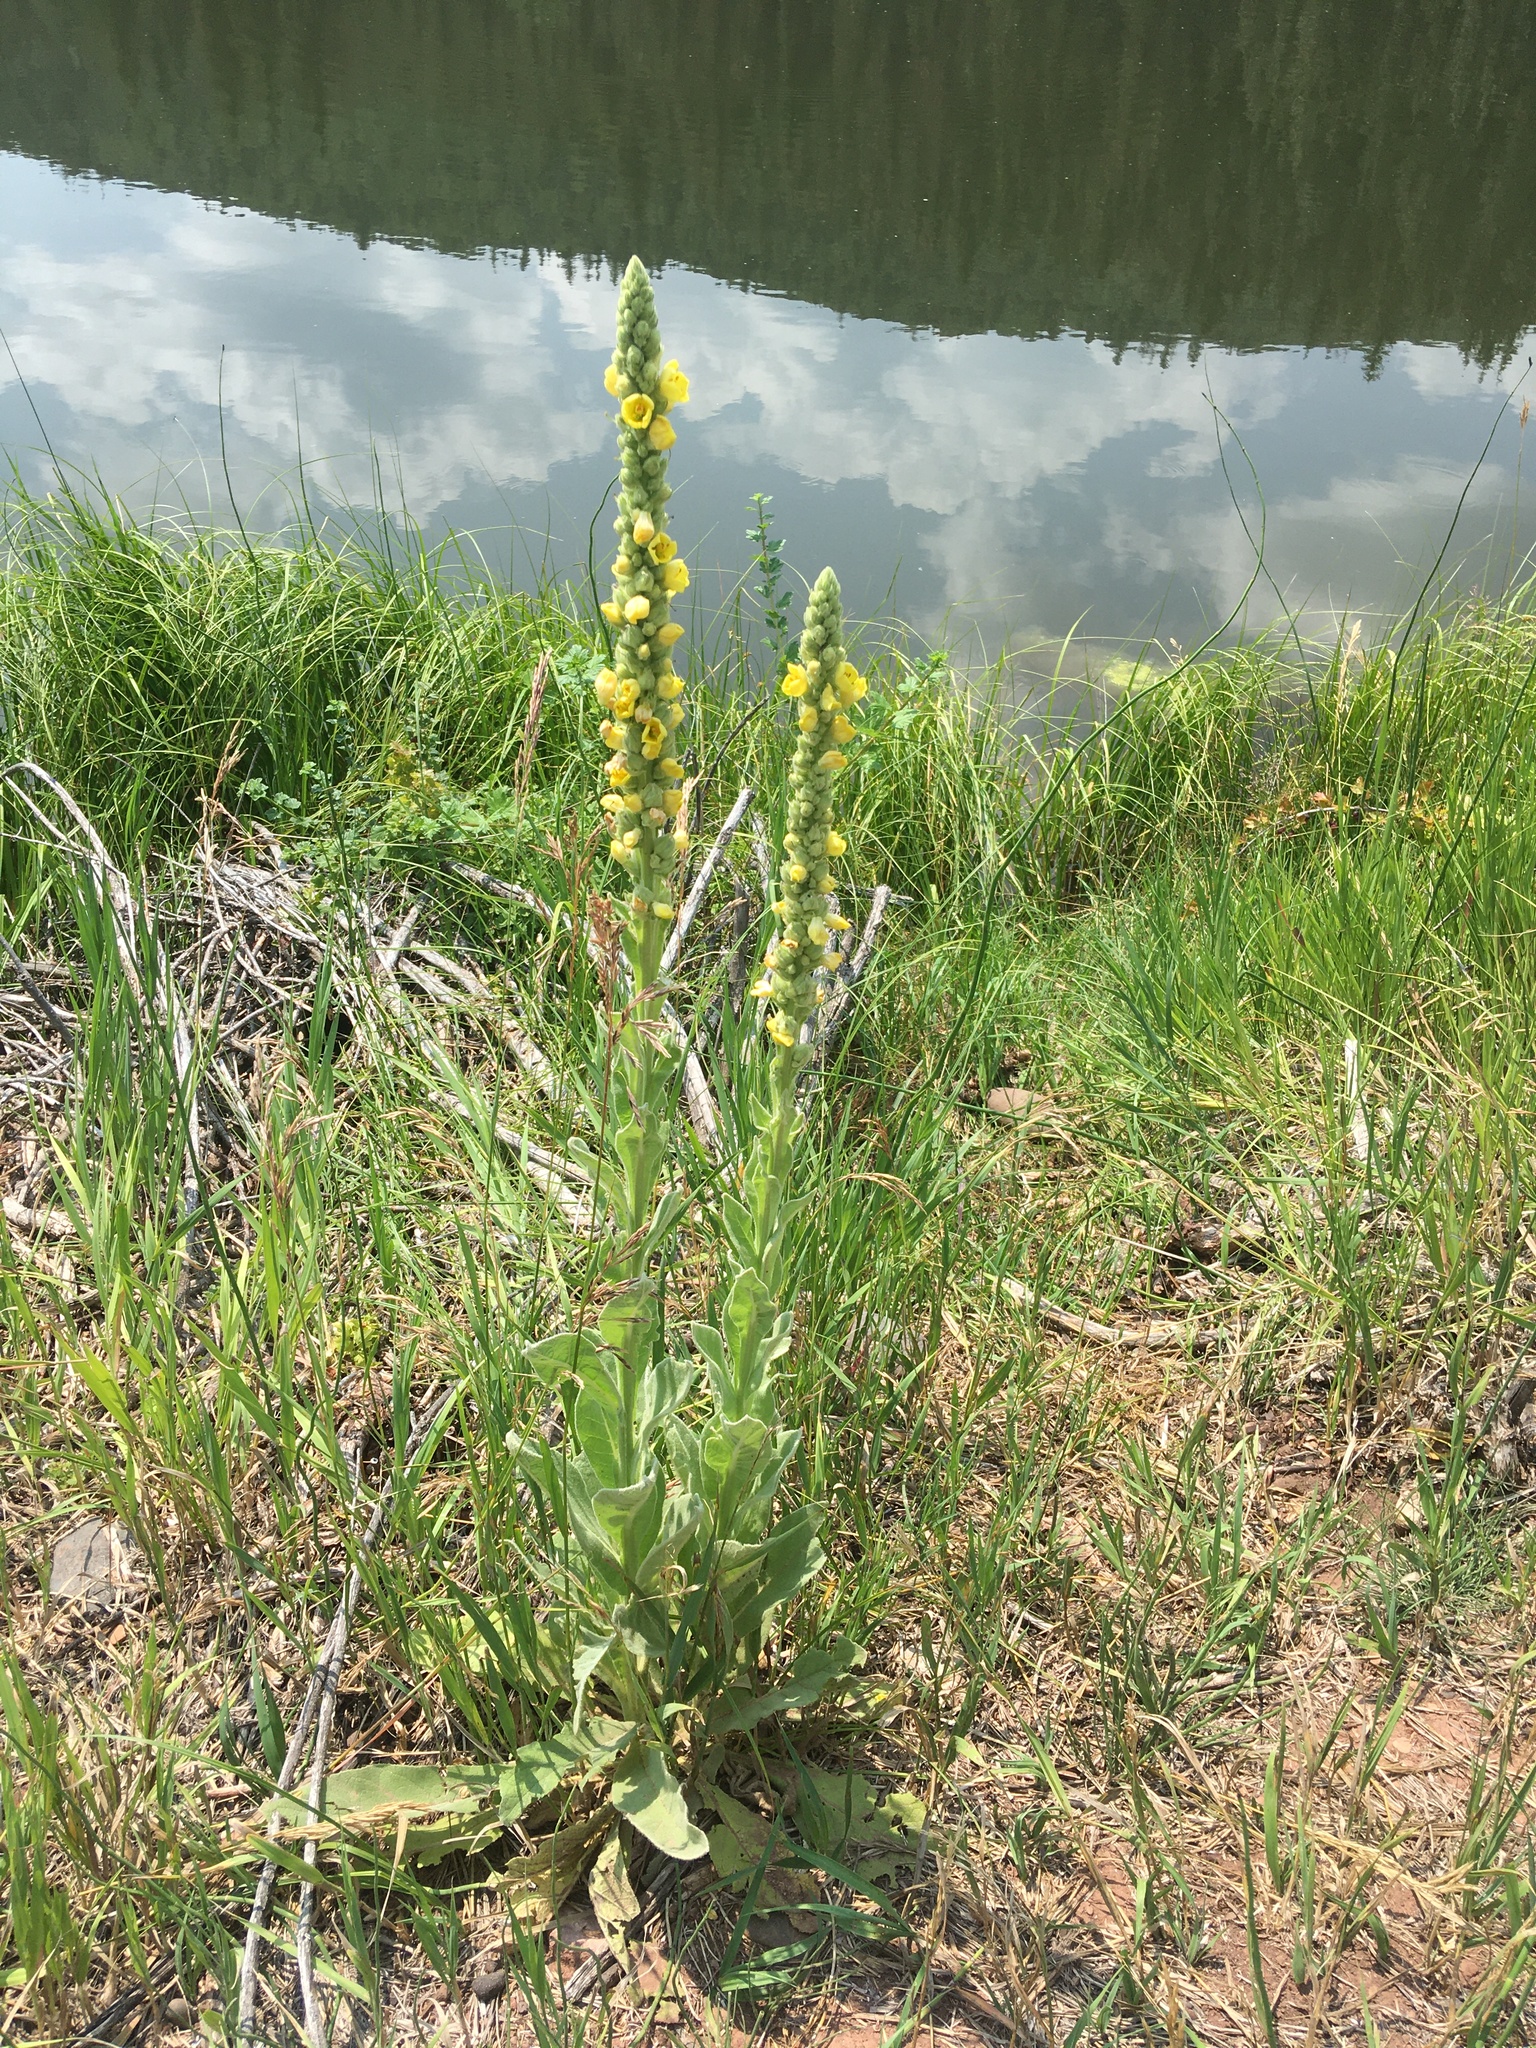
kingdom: Plantae
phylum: Tracheophyta
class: Magnoliopsida
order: Lamiales
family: Scrophulariaceae
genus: Verbascum
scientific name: Verbascum thapsus
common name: Common mullein
